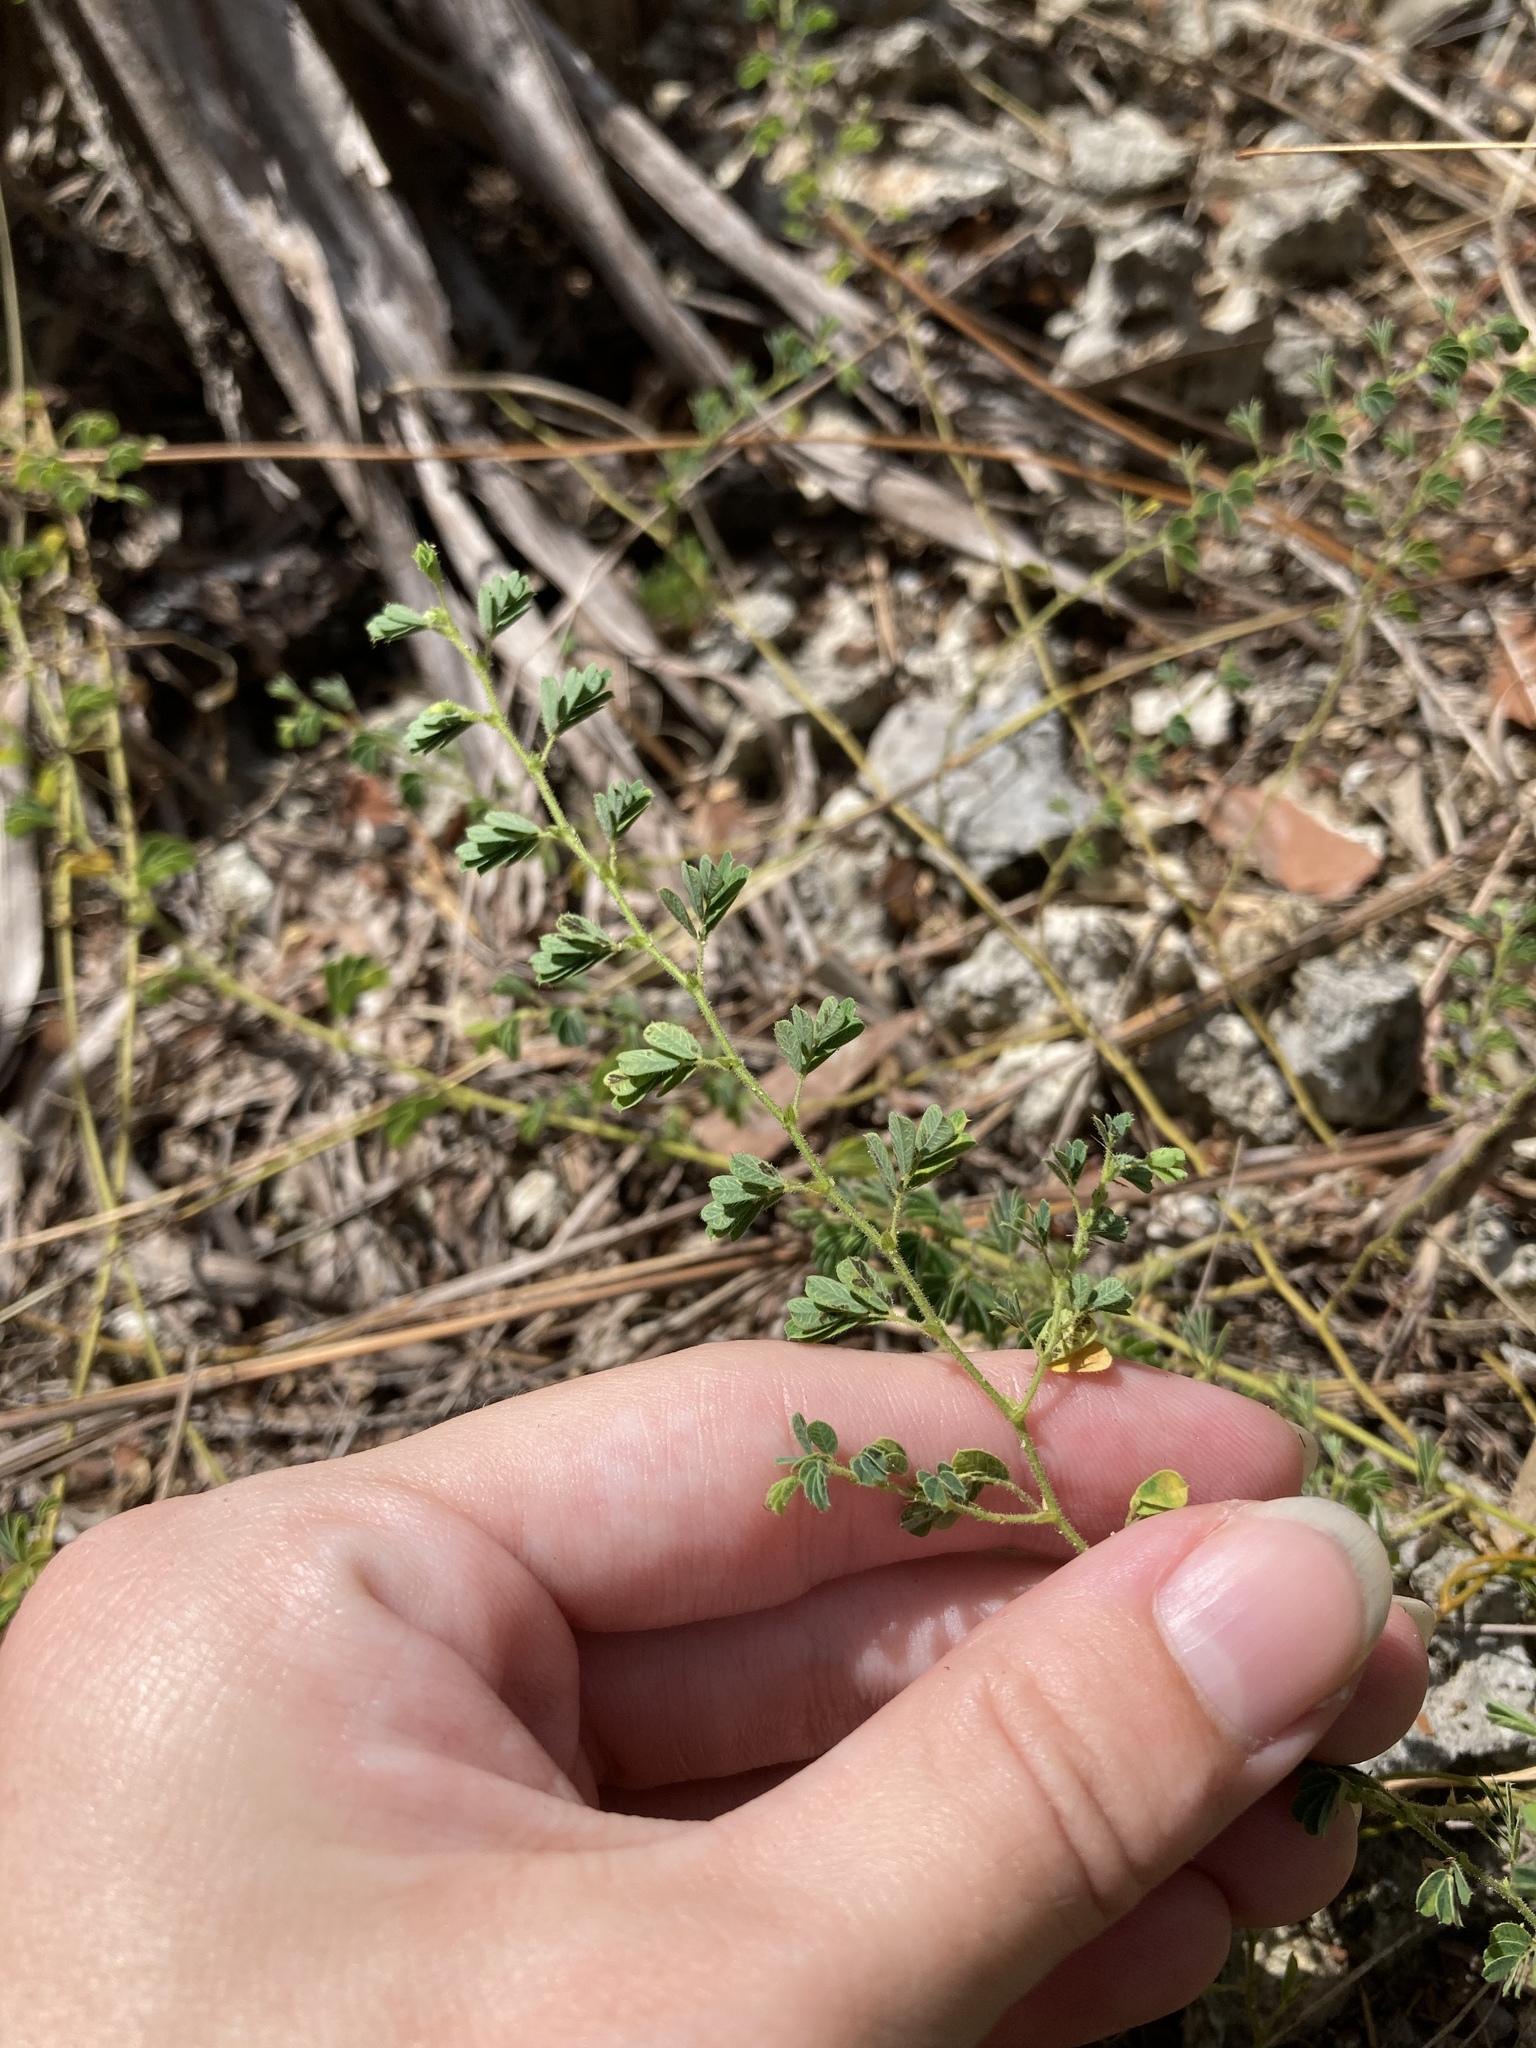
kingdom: Plantae
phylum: Tracheophyta
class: Magnoliopsida
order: Fabales
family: Fabaceae
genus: Ctenodon
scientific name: Ctenodon viscidulus
